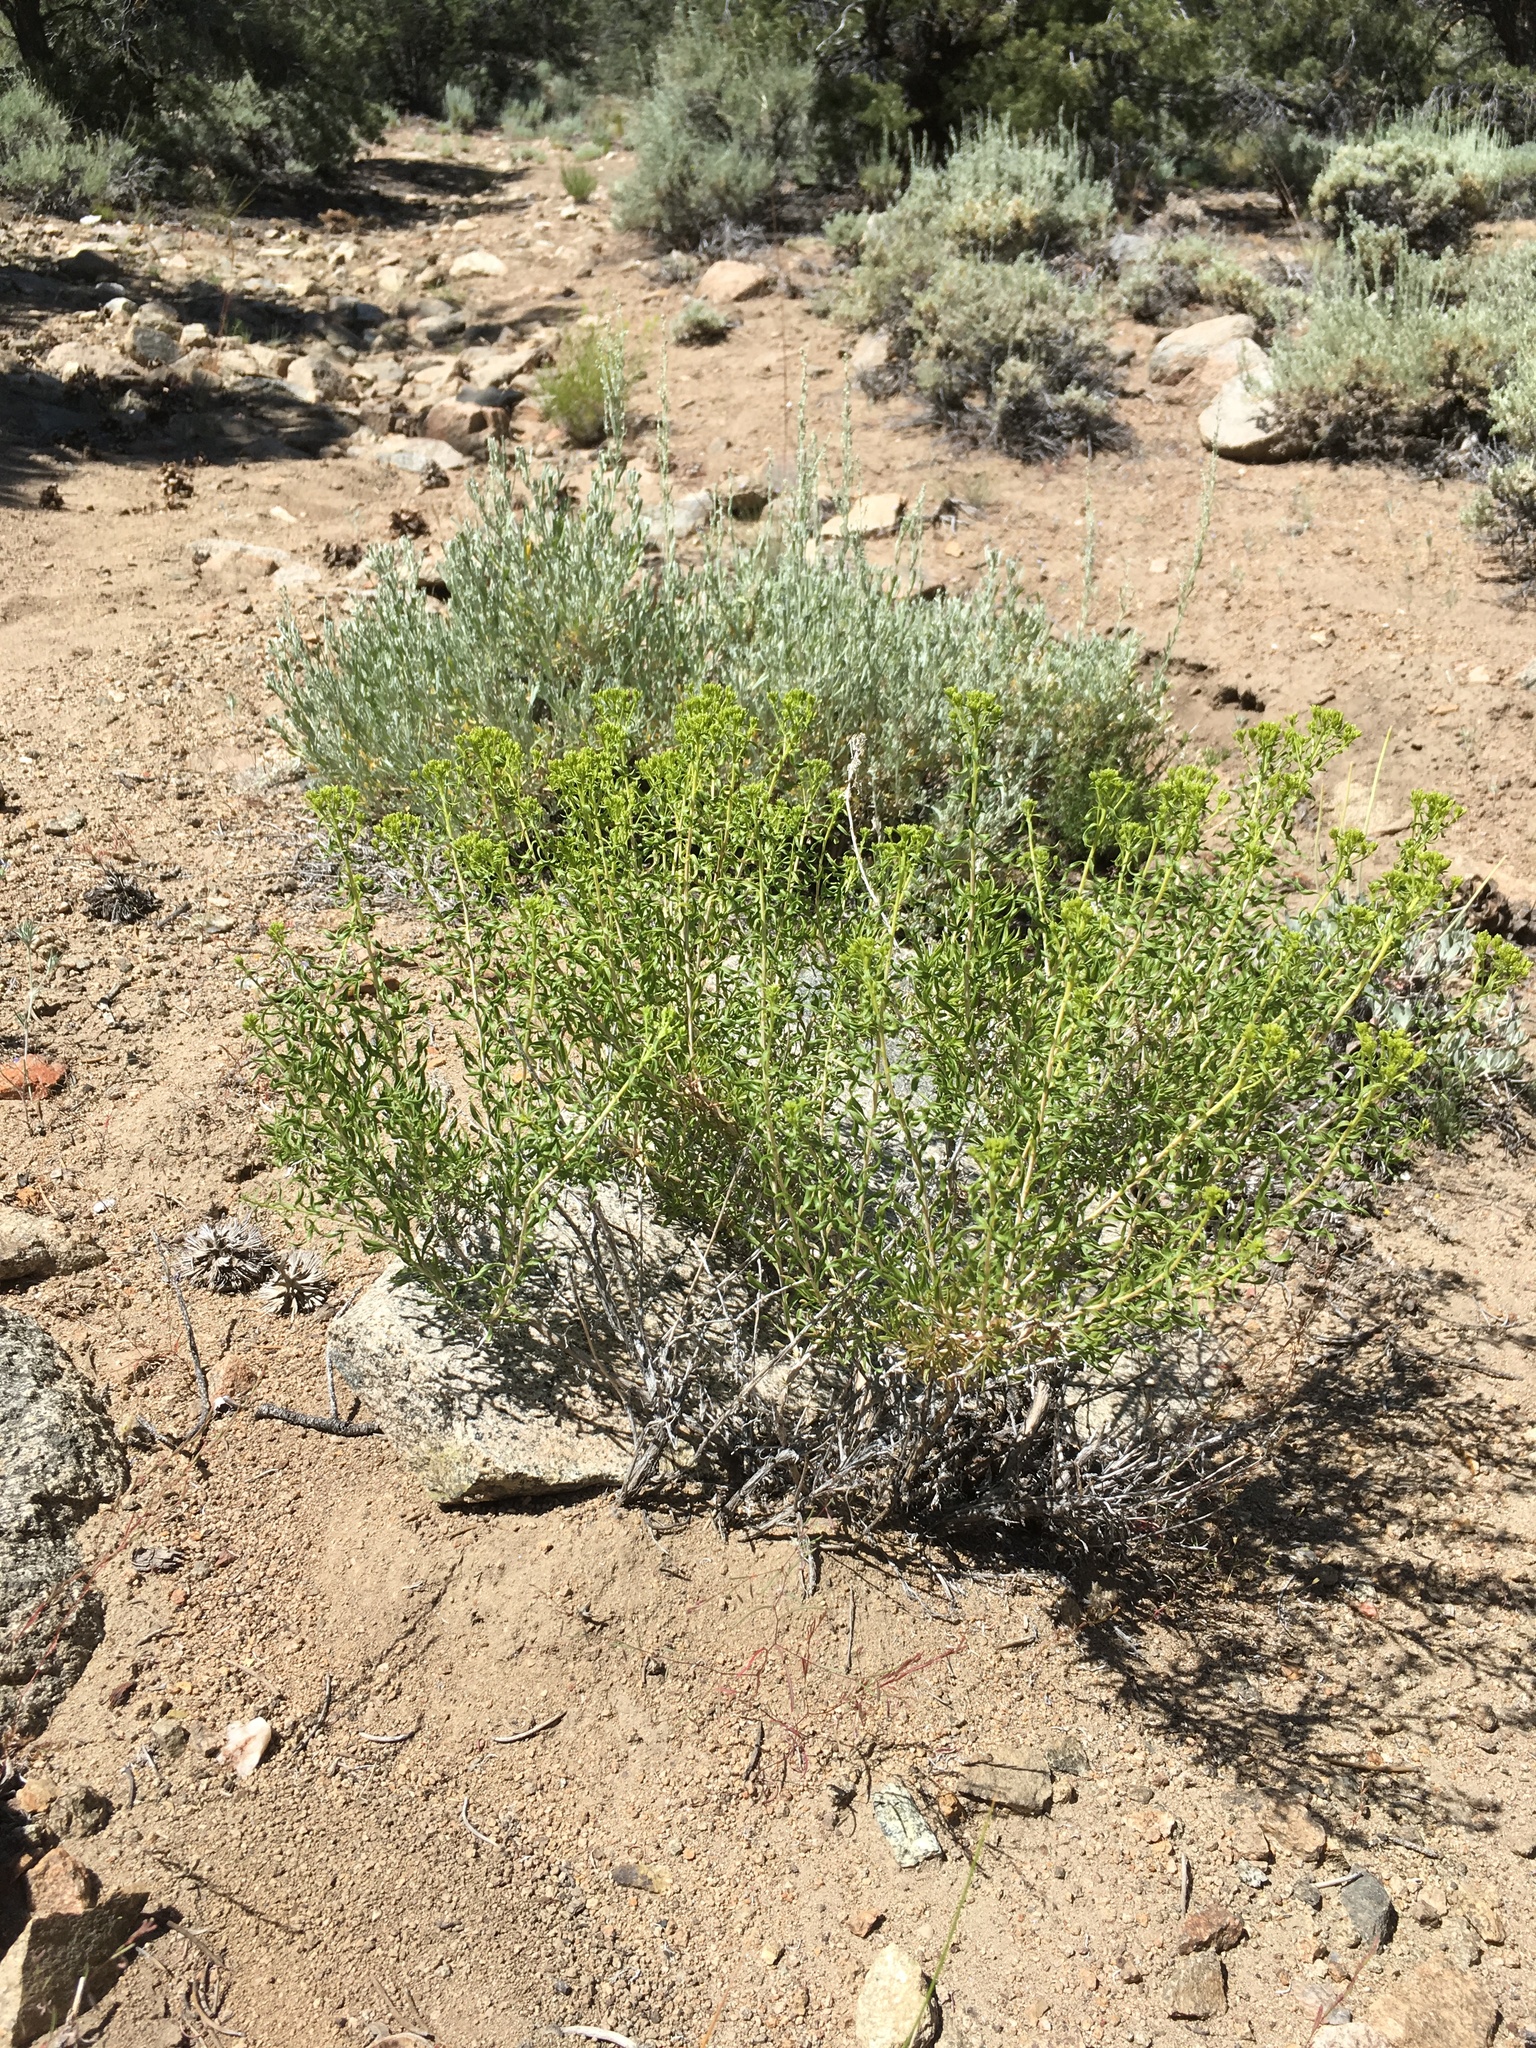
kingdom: Plantae
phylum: Tracheophyta
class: Magnoliopsida
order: Asterales
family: Asteraceae
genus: Chrysothamnus
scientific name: Chrysothamnus viscidiflorus
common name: Yellow rabbitbrush
